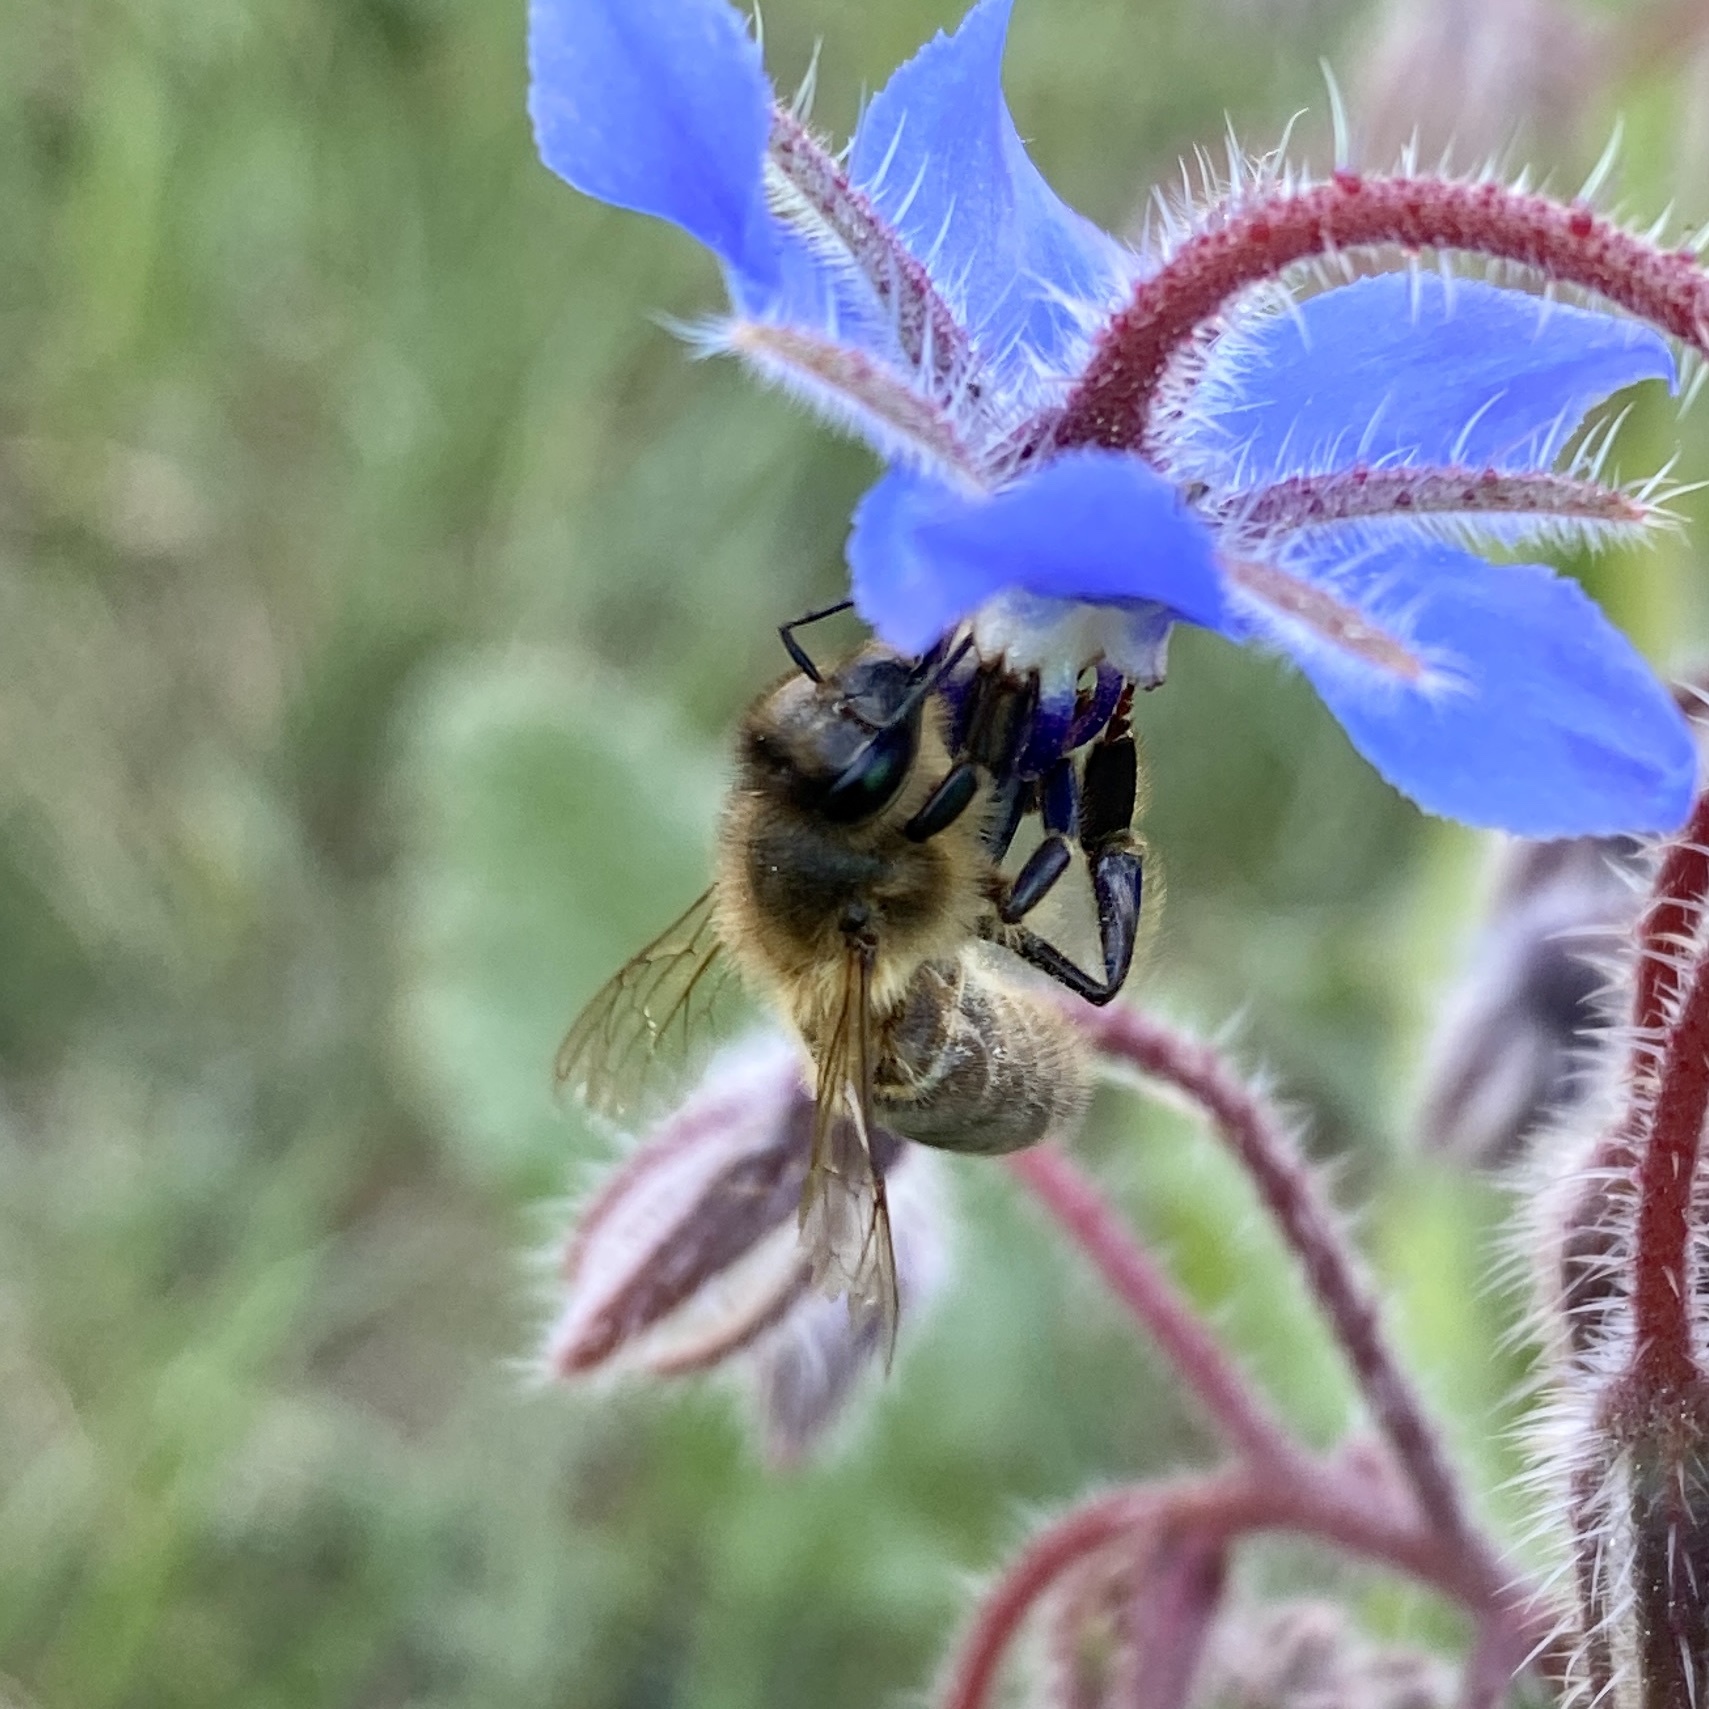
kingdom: Animalia
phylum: Arthropoda
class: Insecta
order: Hymenoptera
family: Apidae
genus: Apis
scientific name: Apis mellifera
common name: Honey bee
